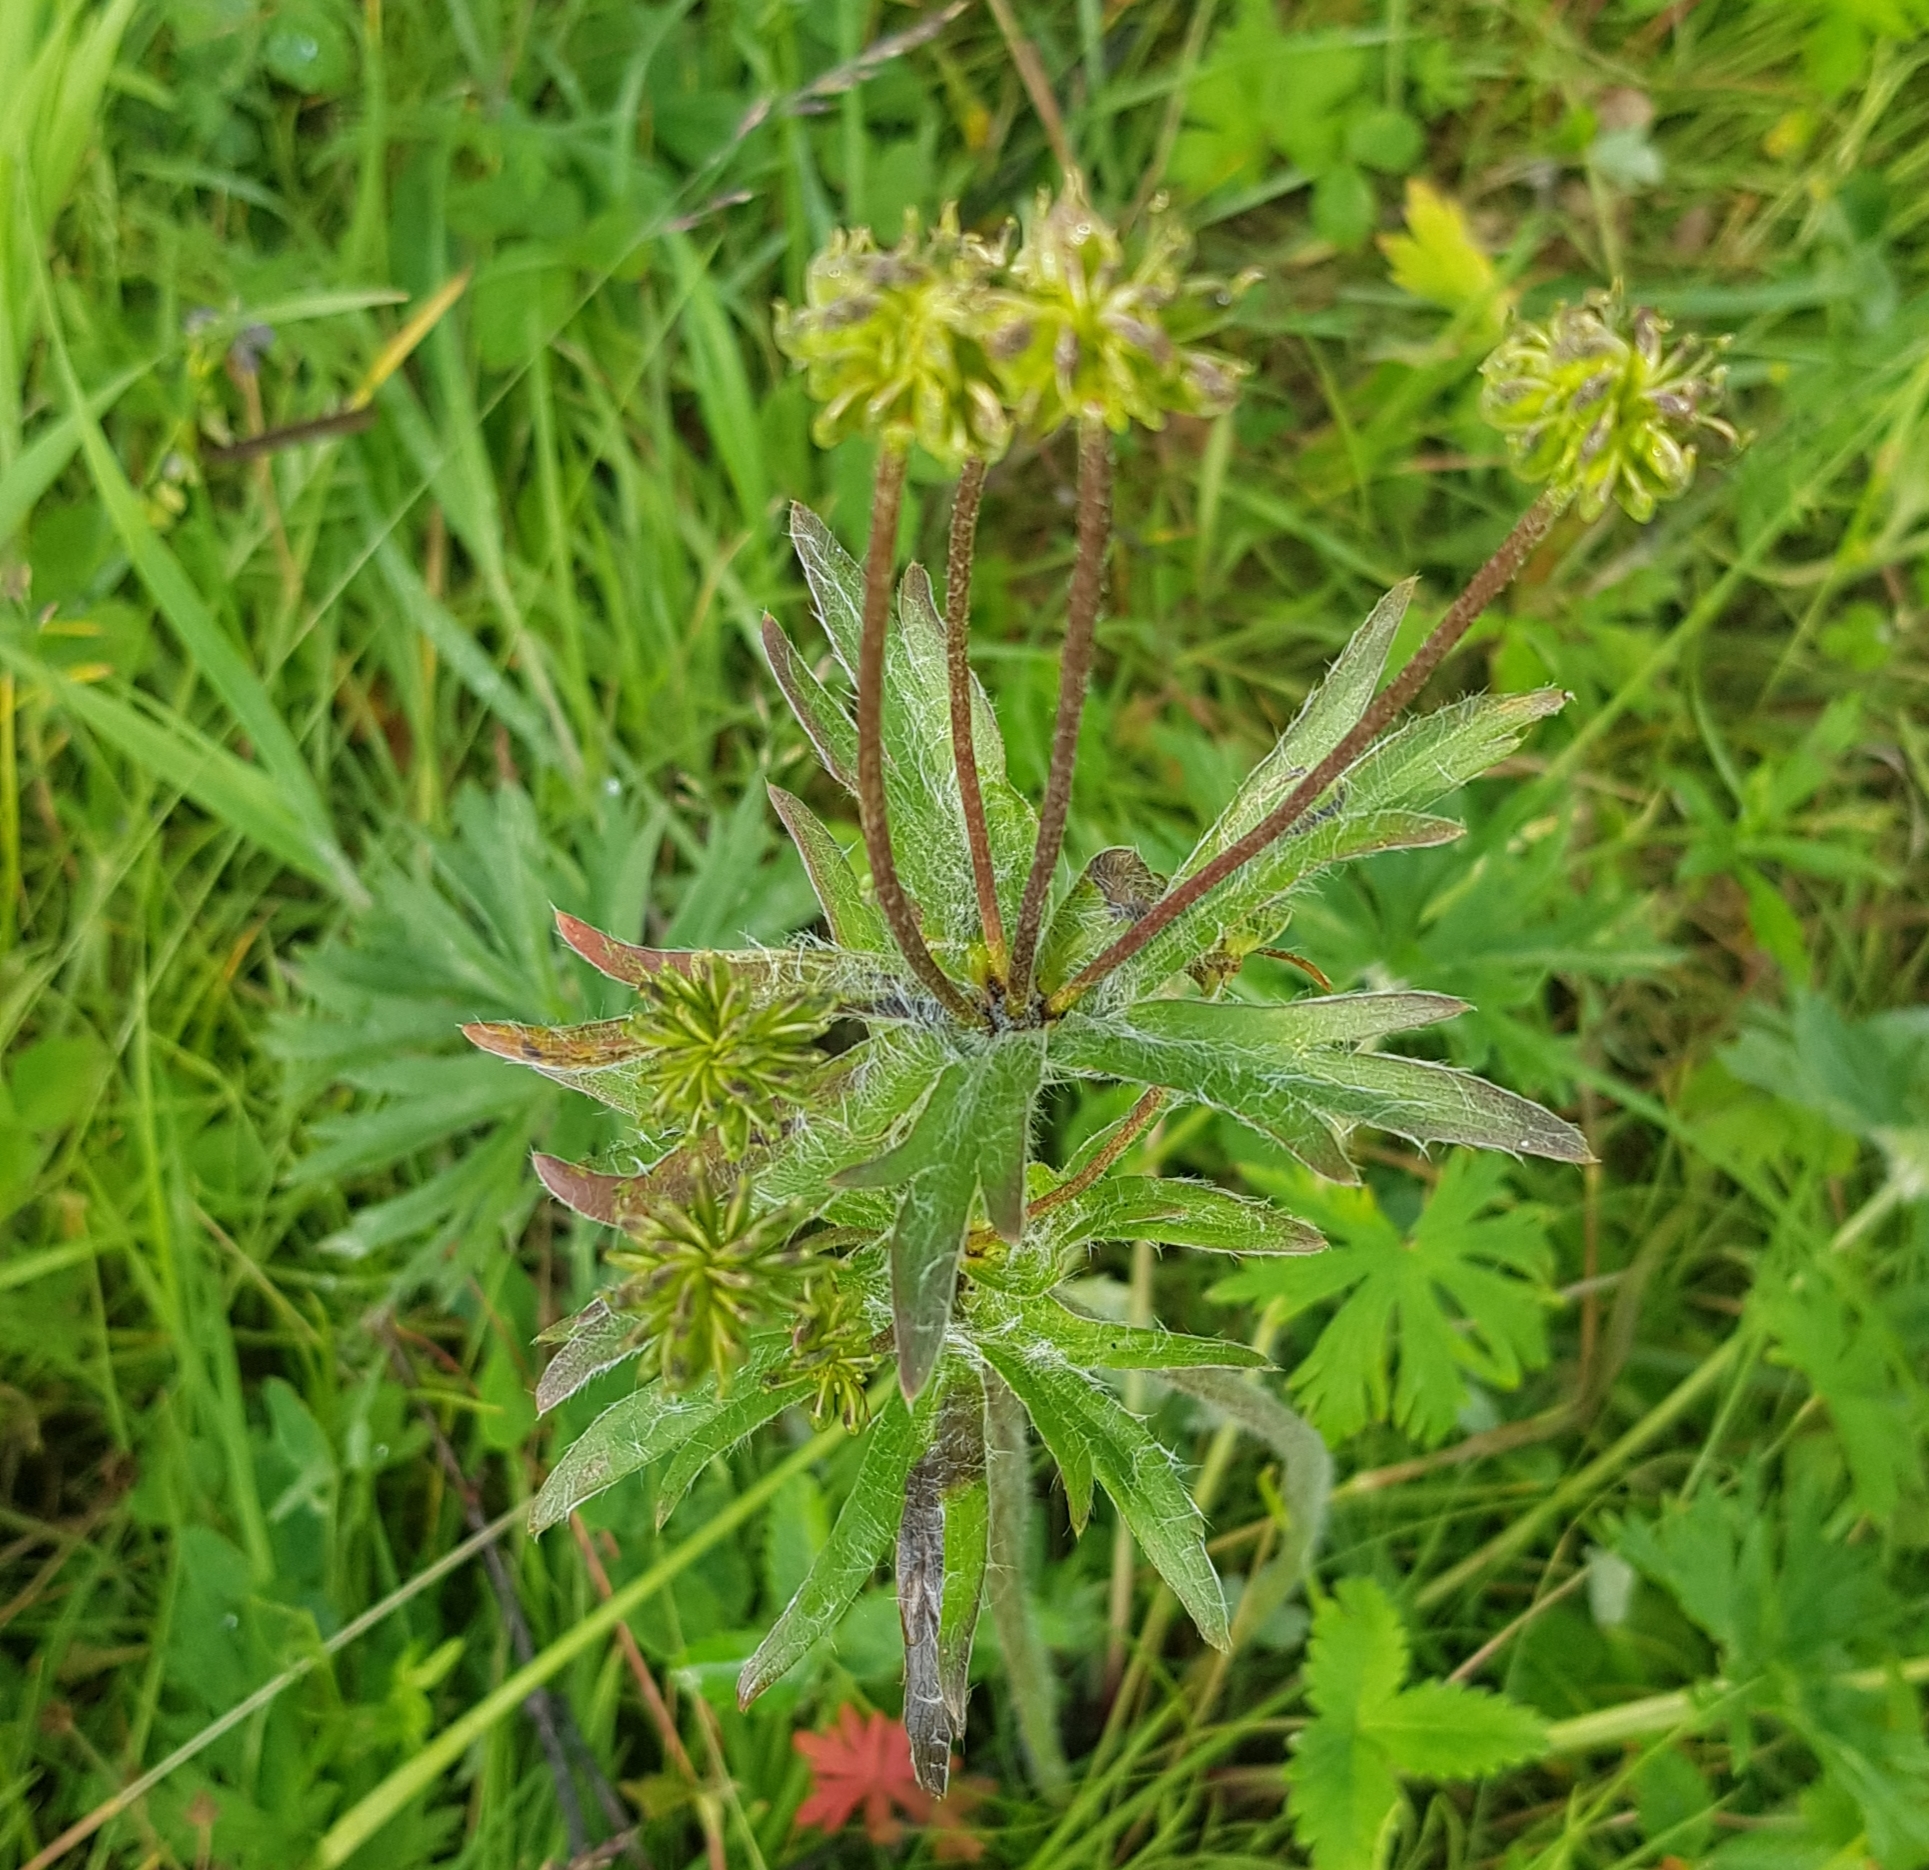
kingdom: Plantae
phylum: Tracheophyta
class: Magnoliopsida
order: Ranunculales
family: Ranunculaceae
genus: Anemonastrum
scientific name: Anemonastrum narcissiflorum
